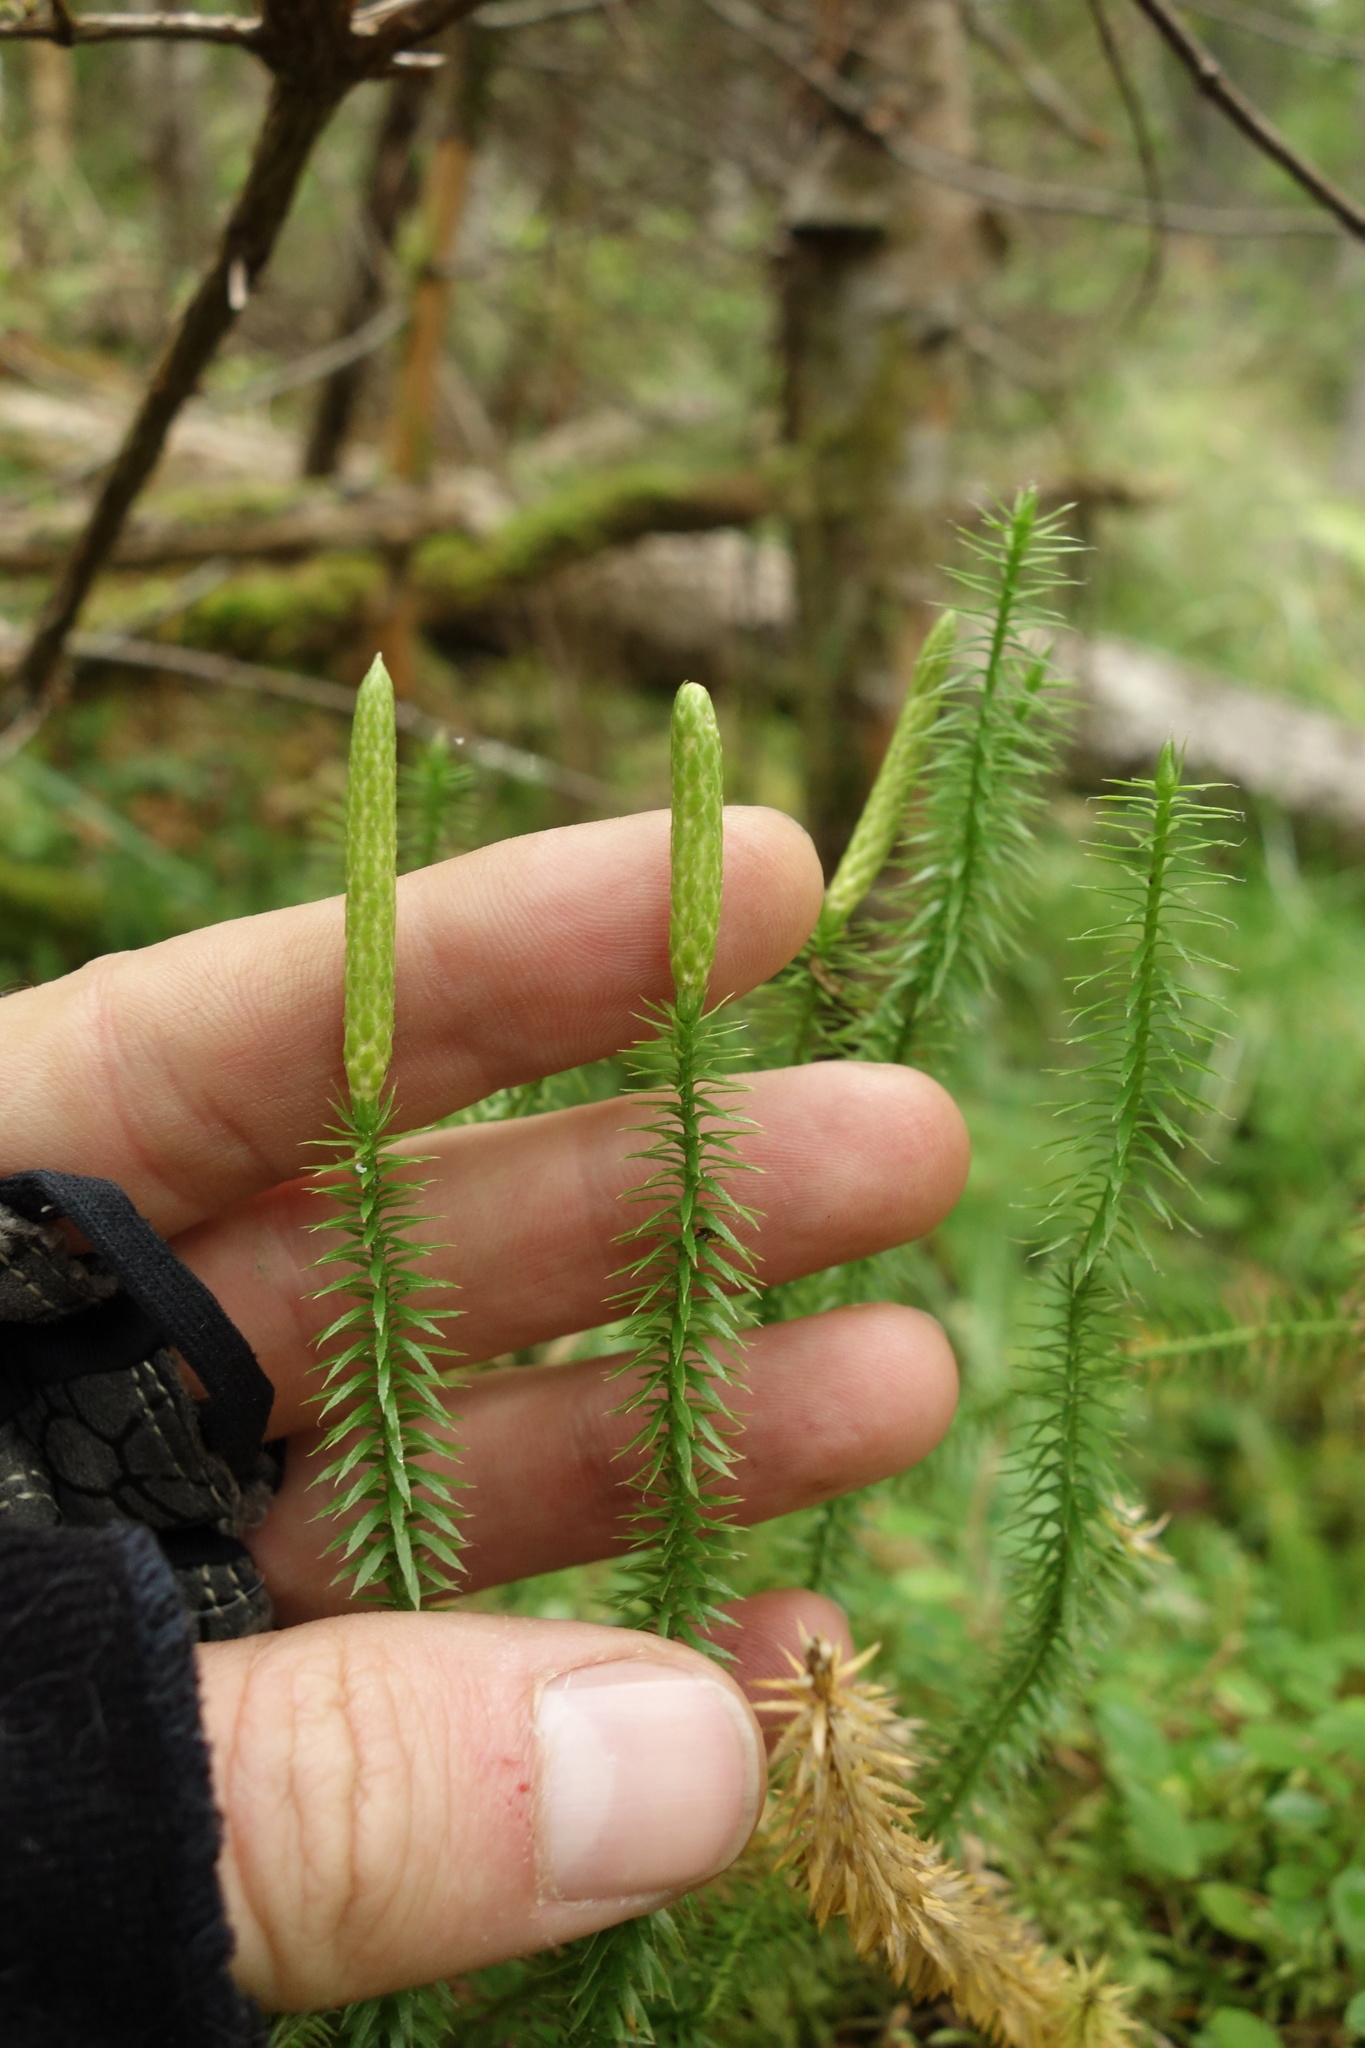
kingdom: Plantae
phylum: Tracheophyta
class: Lycopodiopsida
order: Lycopodiales
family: Lycopodiaceae
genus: Spinulum
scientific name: Spinulum annotinum
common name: Interrupted club-moss
